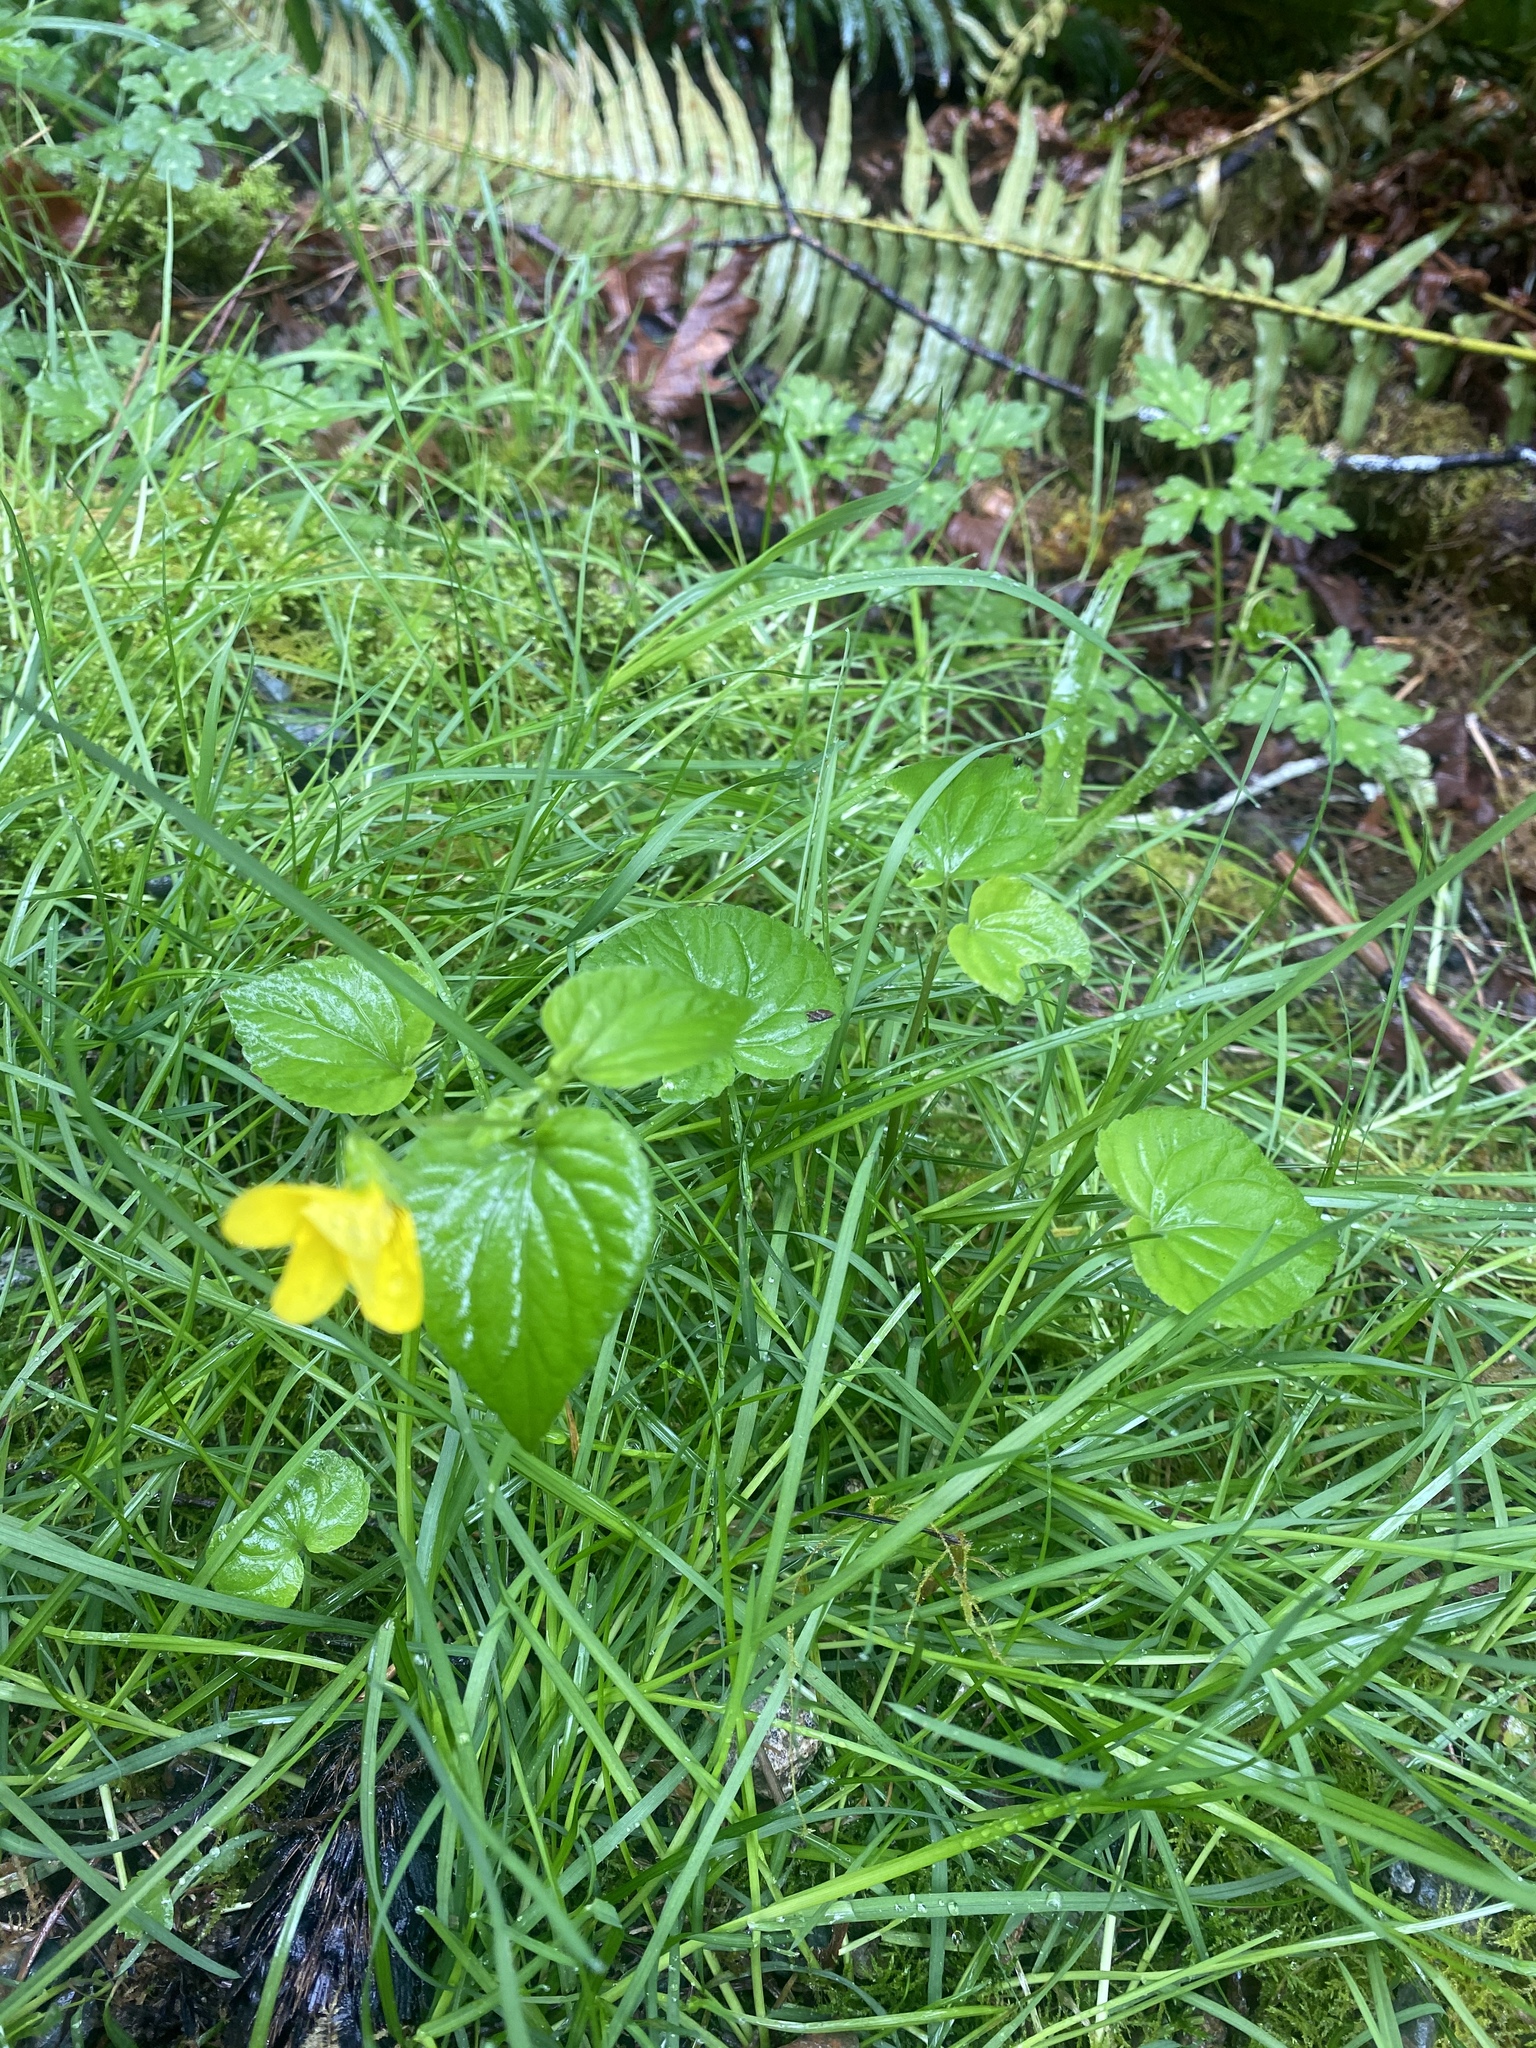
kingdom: Plantae
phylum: Tracheophyta
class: Magnoliopsida
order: Malpighiales
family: Violaceae
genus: Viola
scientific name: Viola glabella
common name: Stream violet
